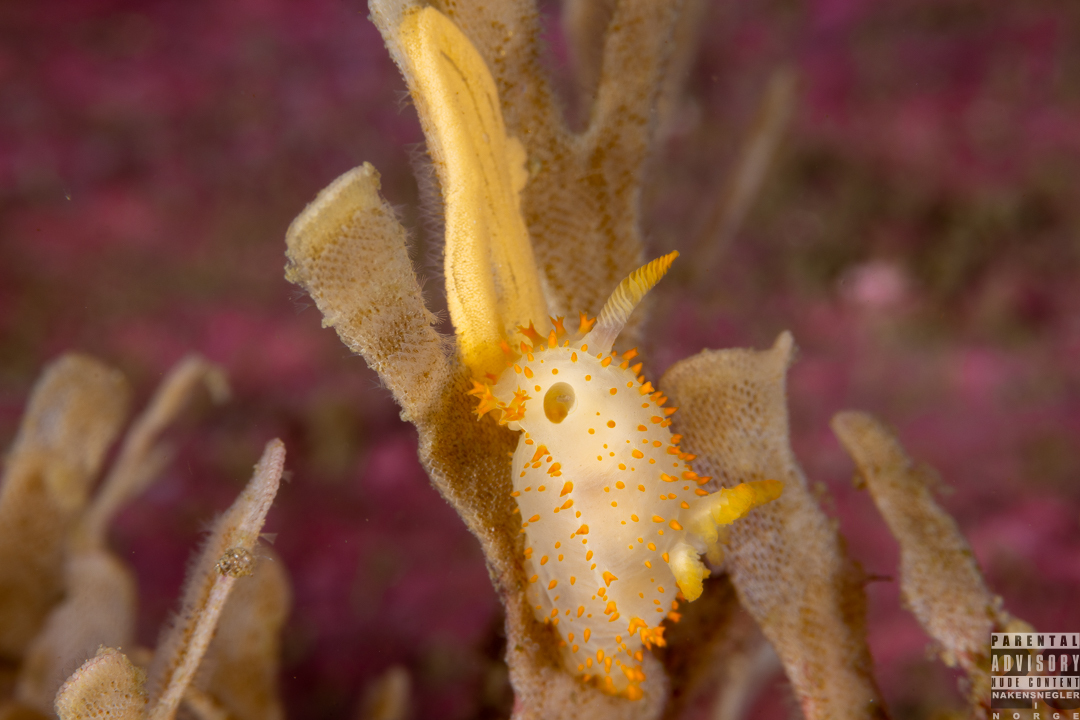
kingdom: Animalia
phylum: Mollusca
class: Gastropoda
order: Nudibranchia
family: Polyceridae
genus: Crimora
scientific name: Crimora papillata
